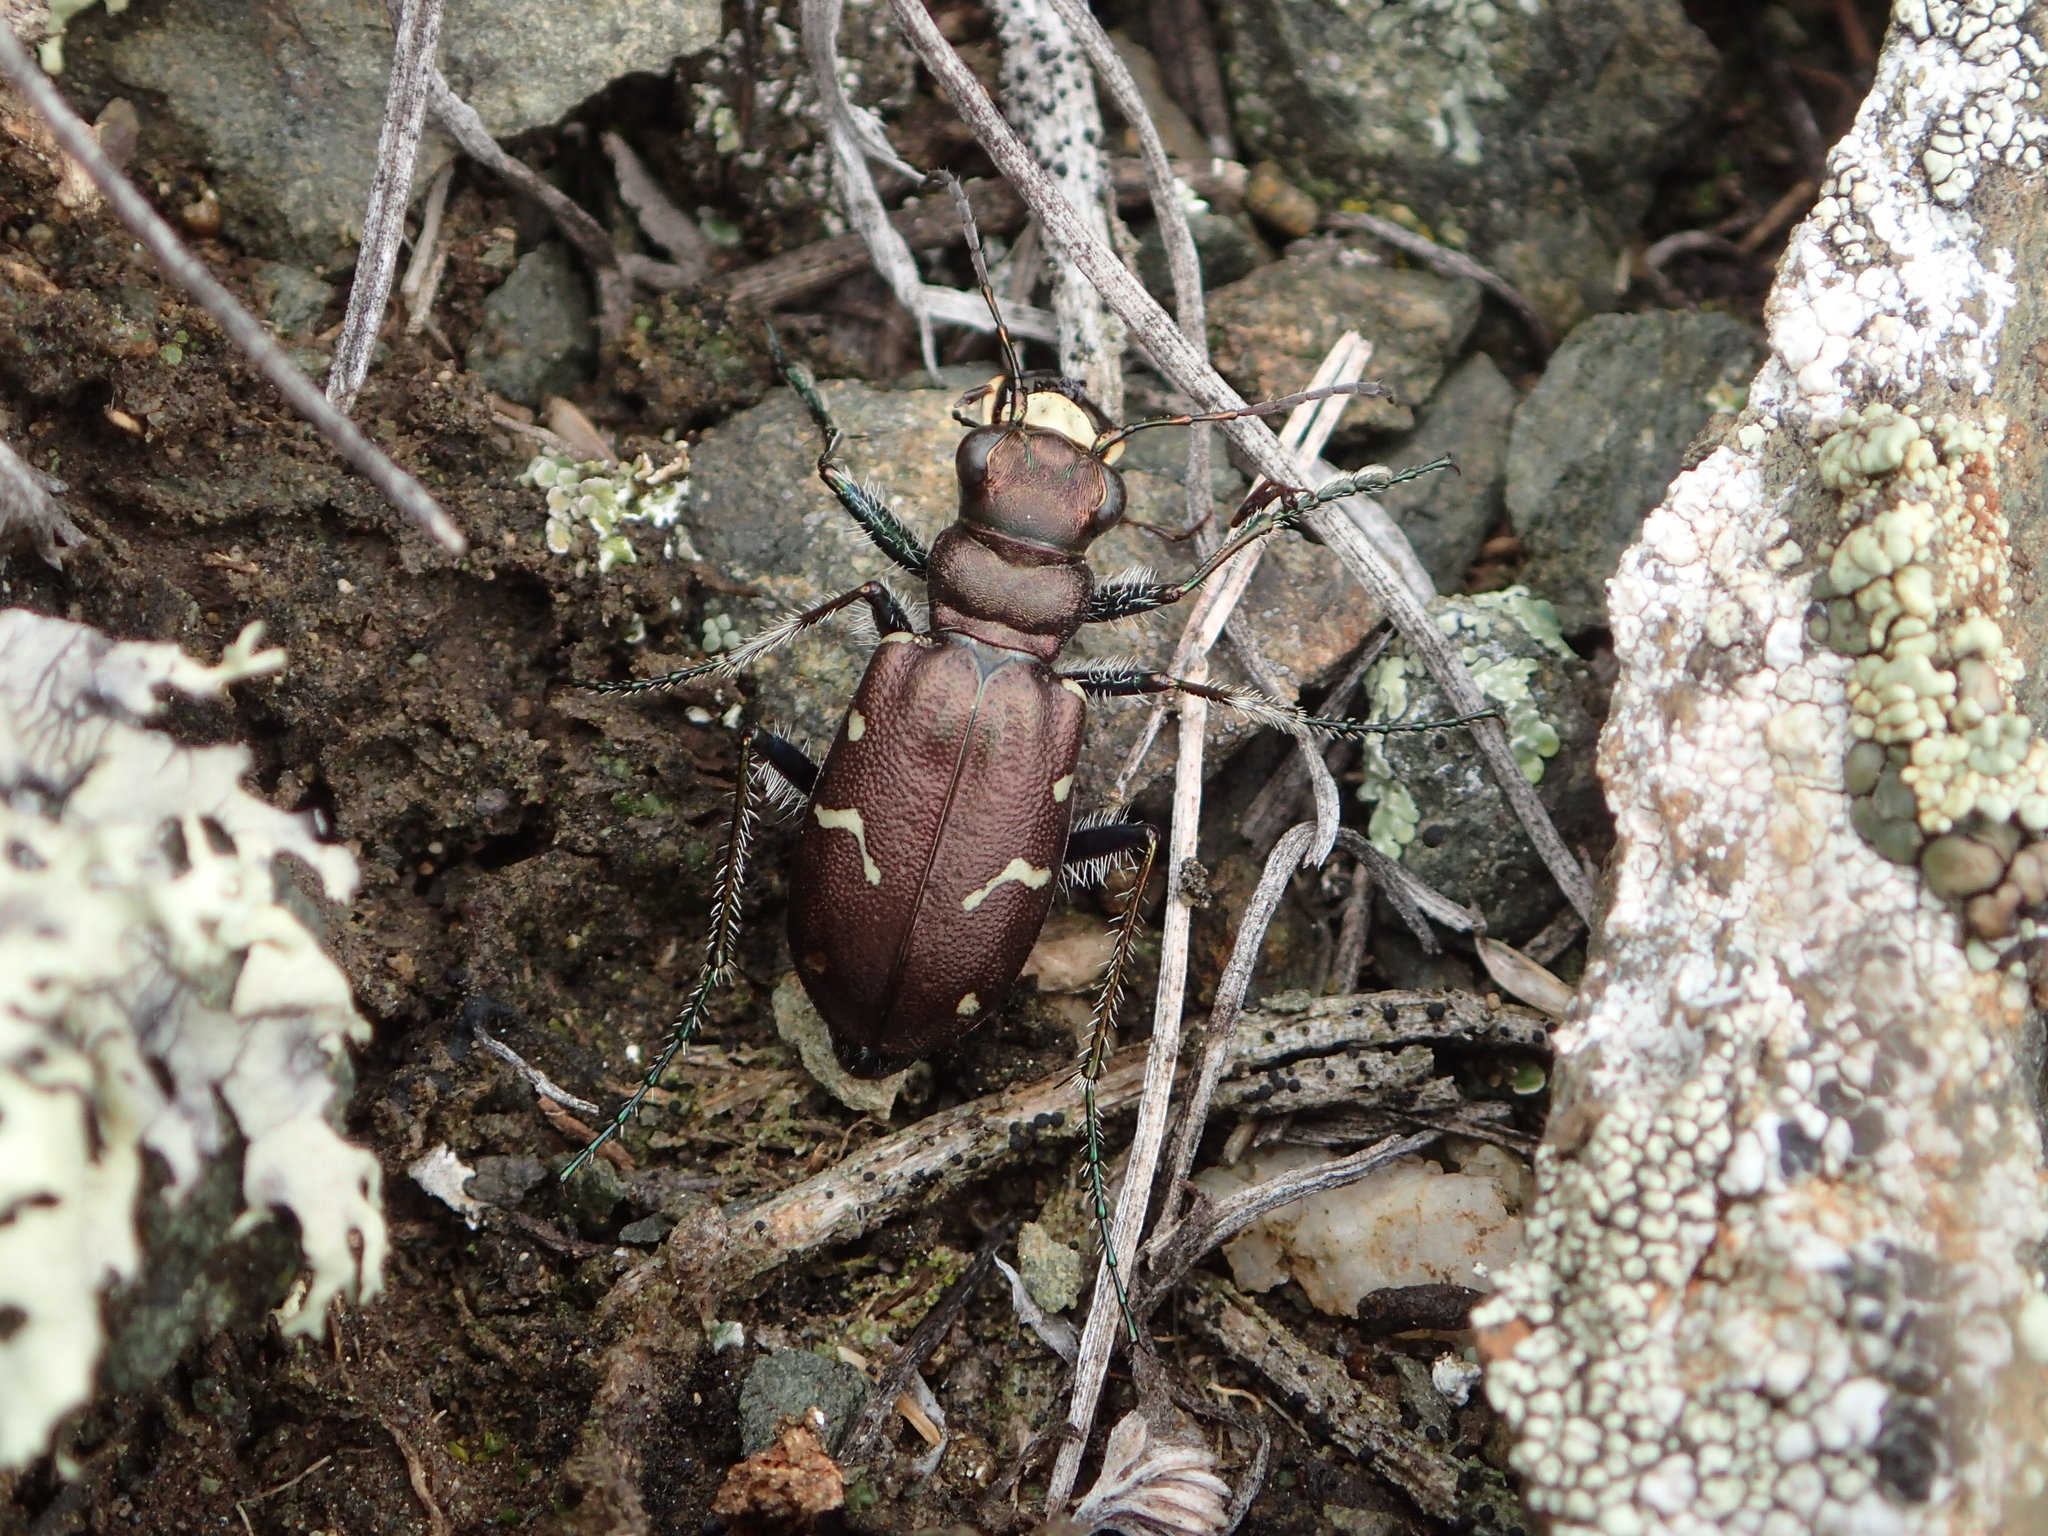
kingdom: Animalia
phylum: Arthropoda
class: Insecta
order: Coleoptera
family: Carabidae
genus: Cicindela
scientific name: Cicindela longilabris
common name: Boreal long-lipped tiger beetle
